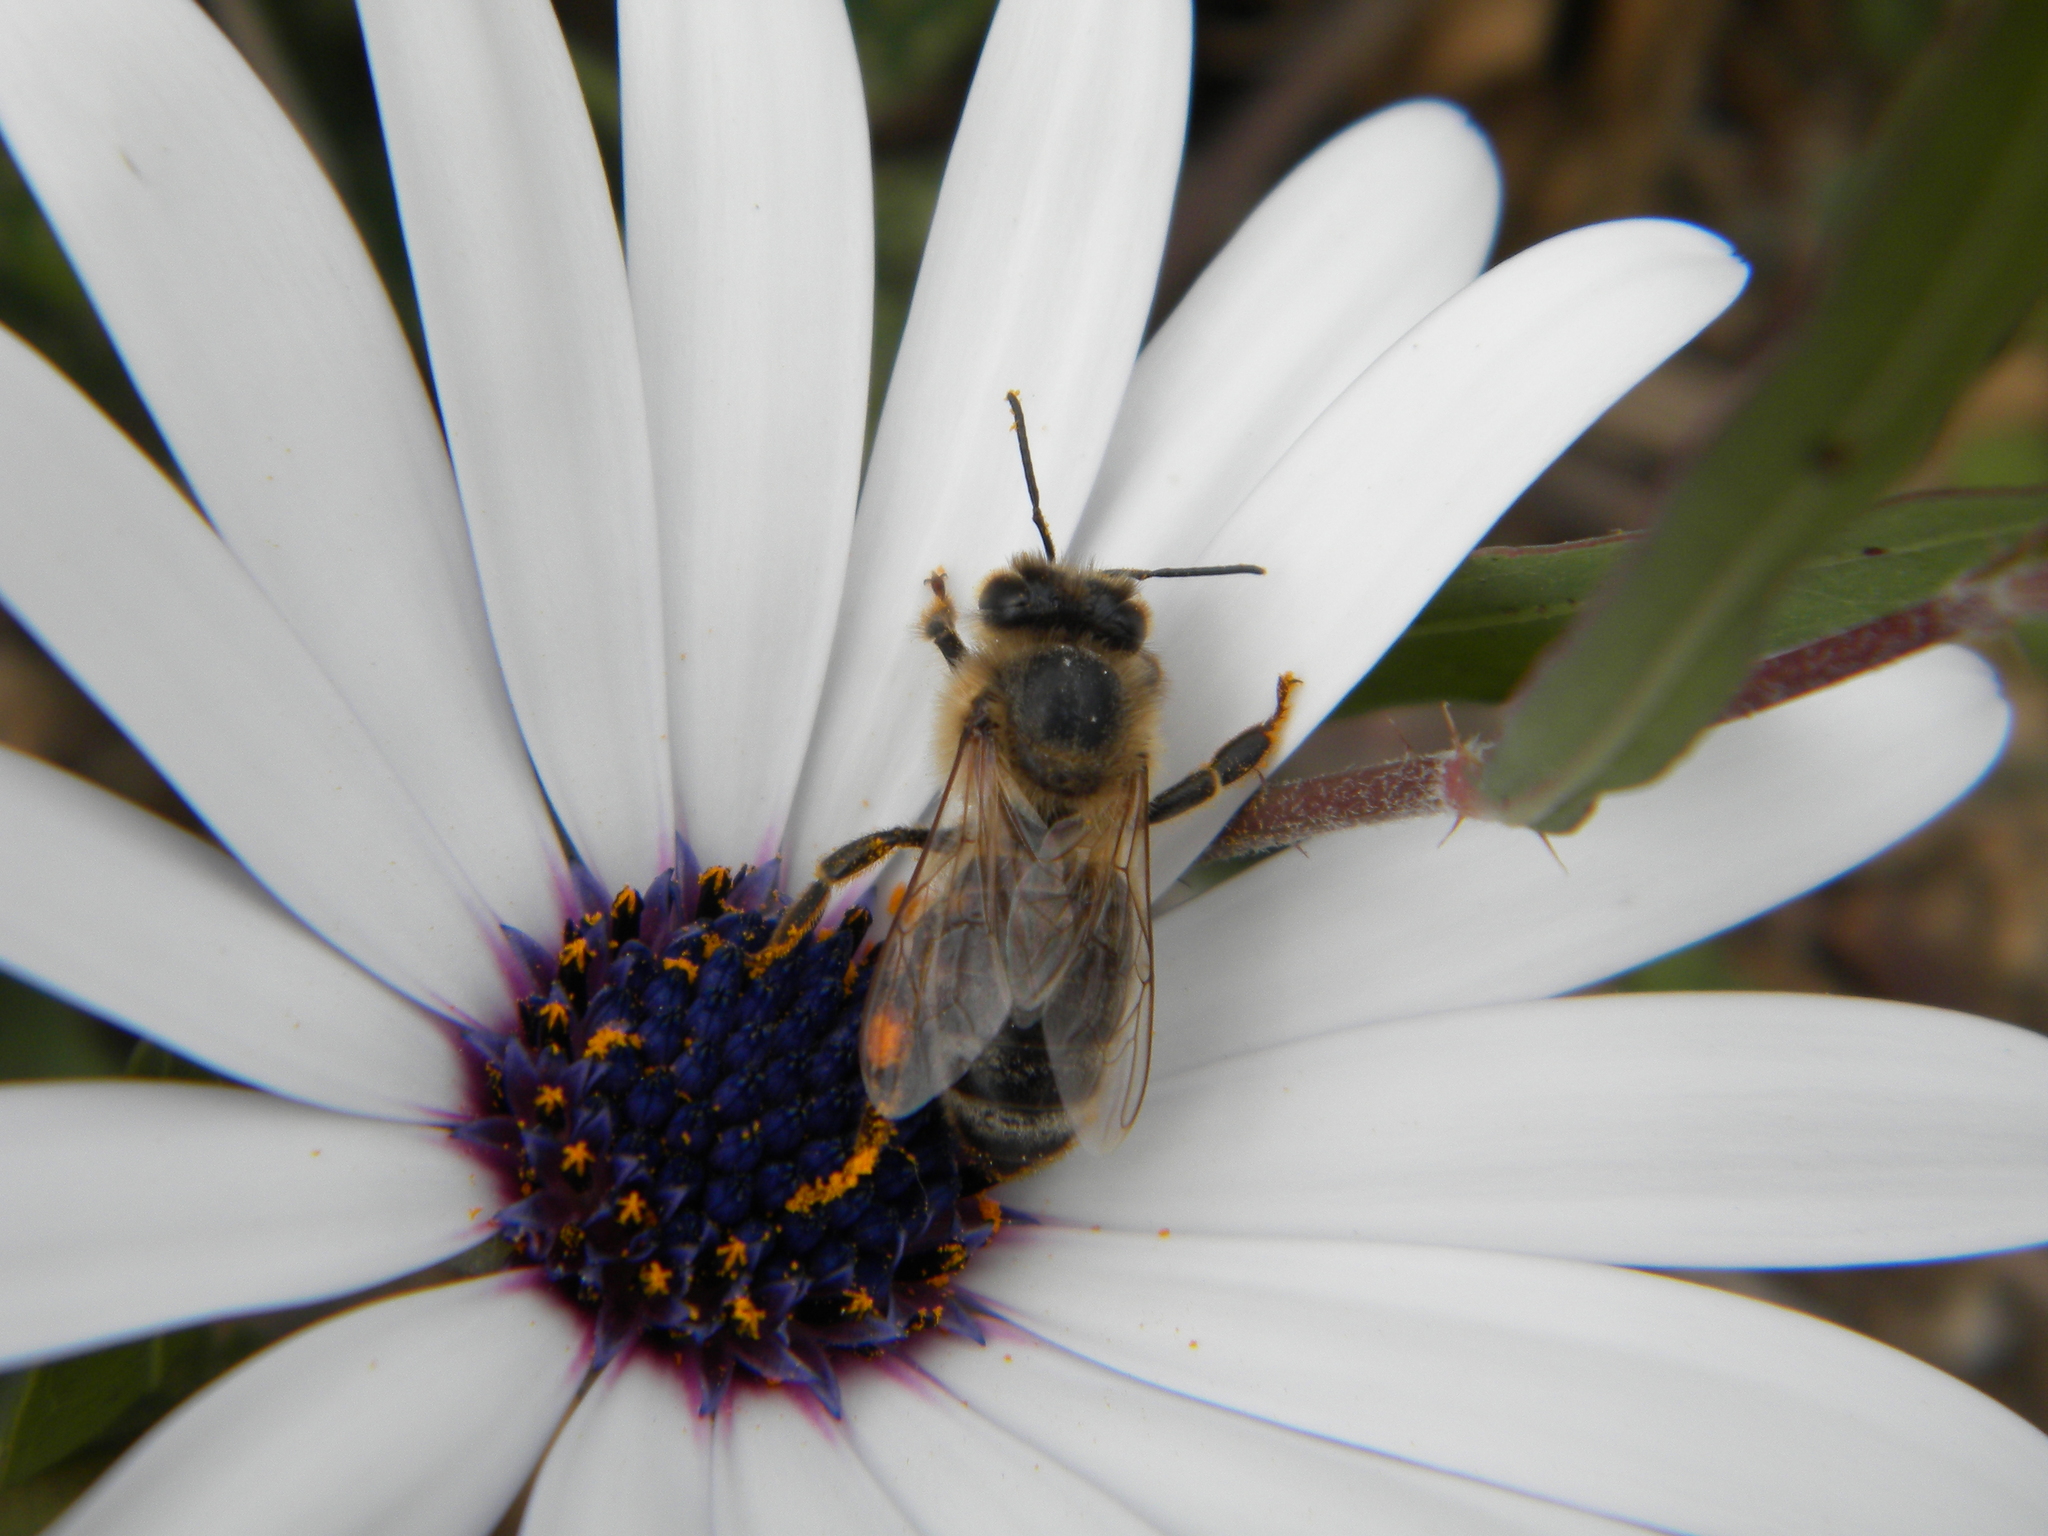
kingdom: Animalia
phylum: Arthropoda
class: Insecta
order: Hymenoptera
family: Apidae
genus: Apis
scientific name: Apis mellifera
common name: Honey bee
